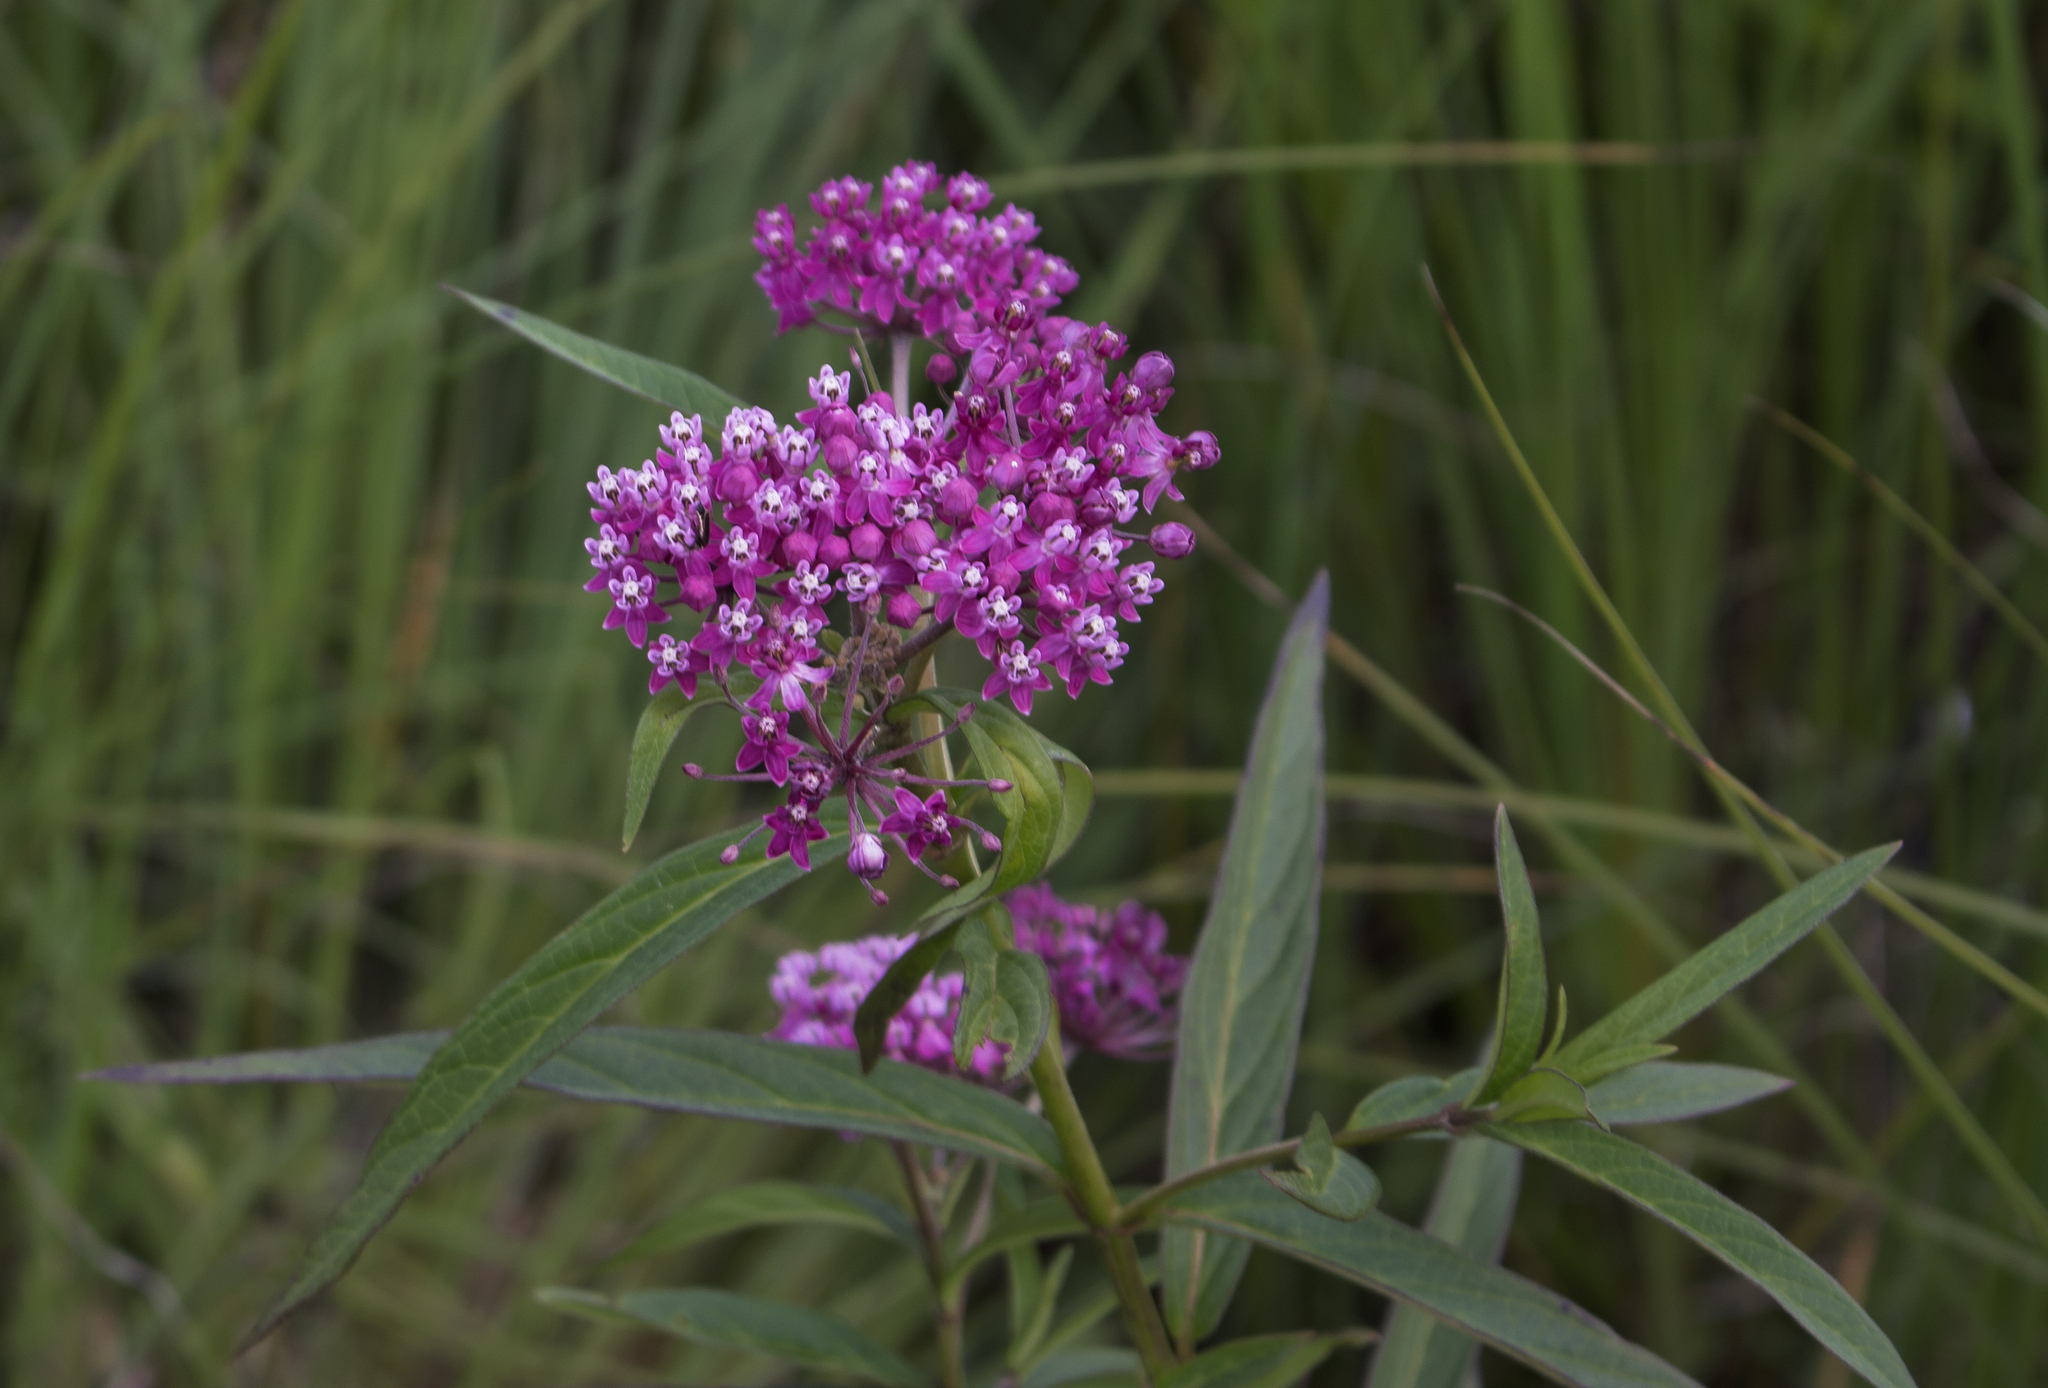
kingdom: Plantae
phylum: Tracheophyta
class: Magnoliopsida
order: Gentianales
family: Apocynaceae
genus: Asclepias
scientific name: Asclepias incarnata
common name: Swamp milkweed
